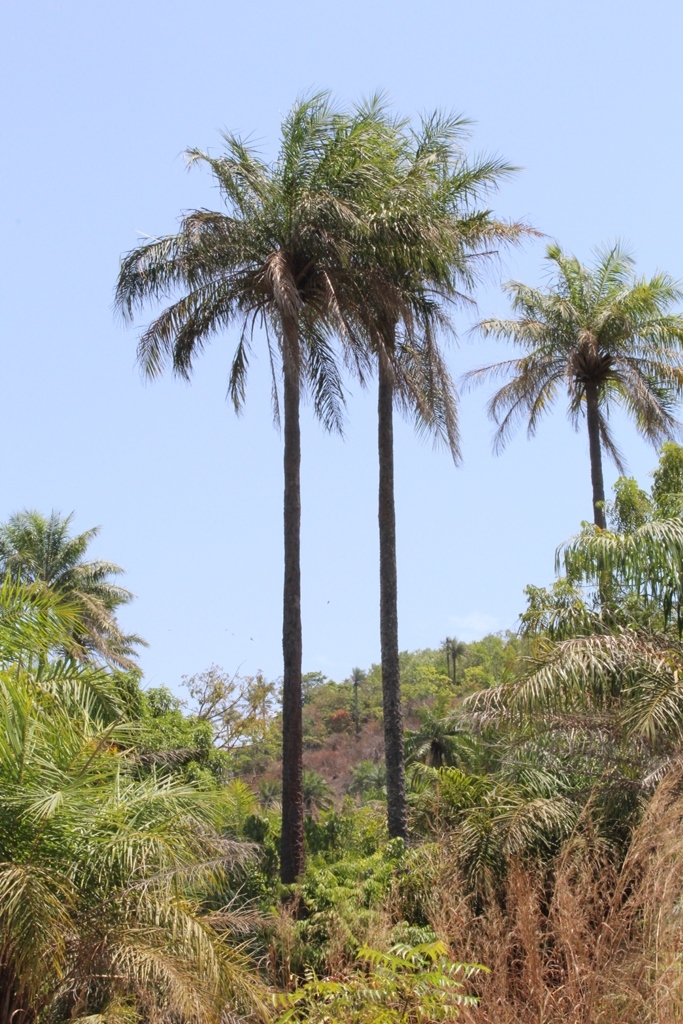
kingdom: Plantae
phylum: Tracheophyta
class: Liliopsida
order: Arecales
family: Arecaceae
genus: Elaeis
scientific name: Elaeis guineensis
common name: Oil palm
